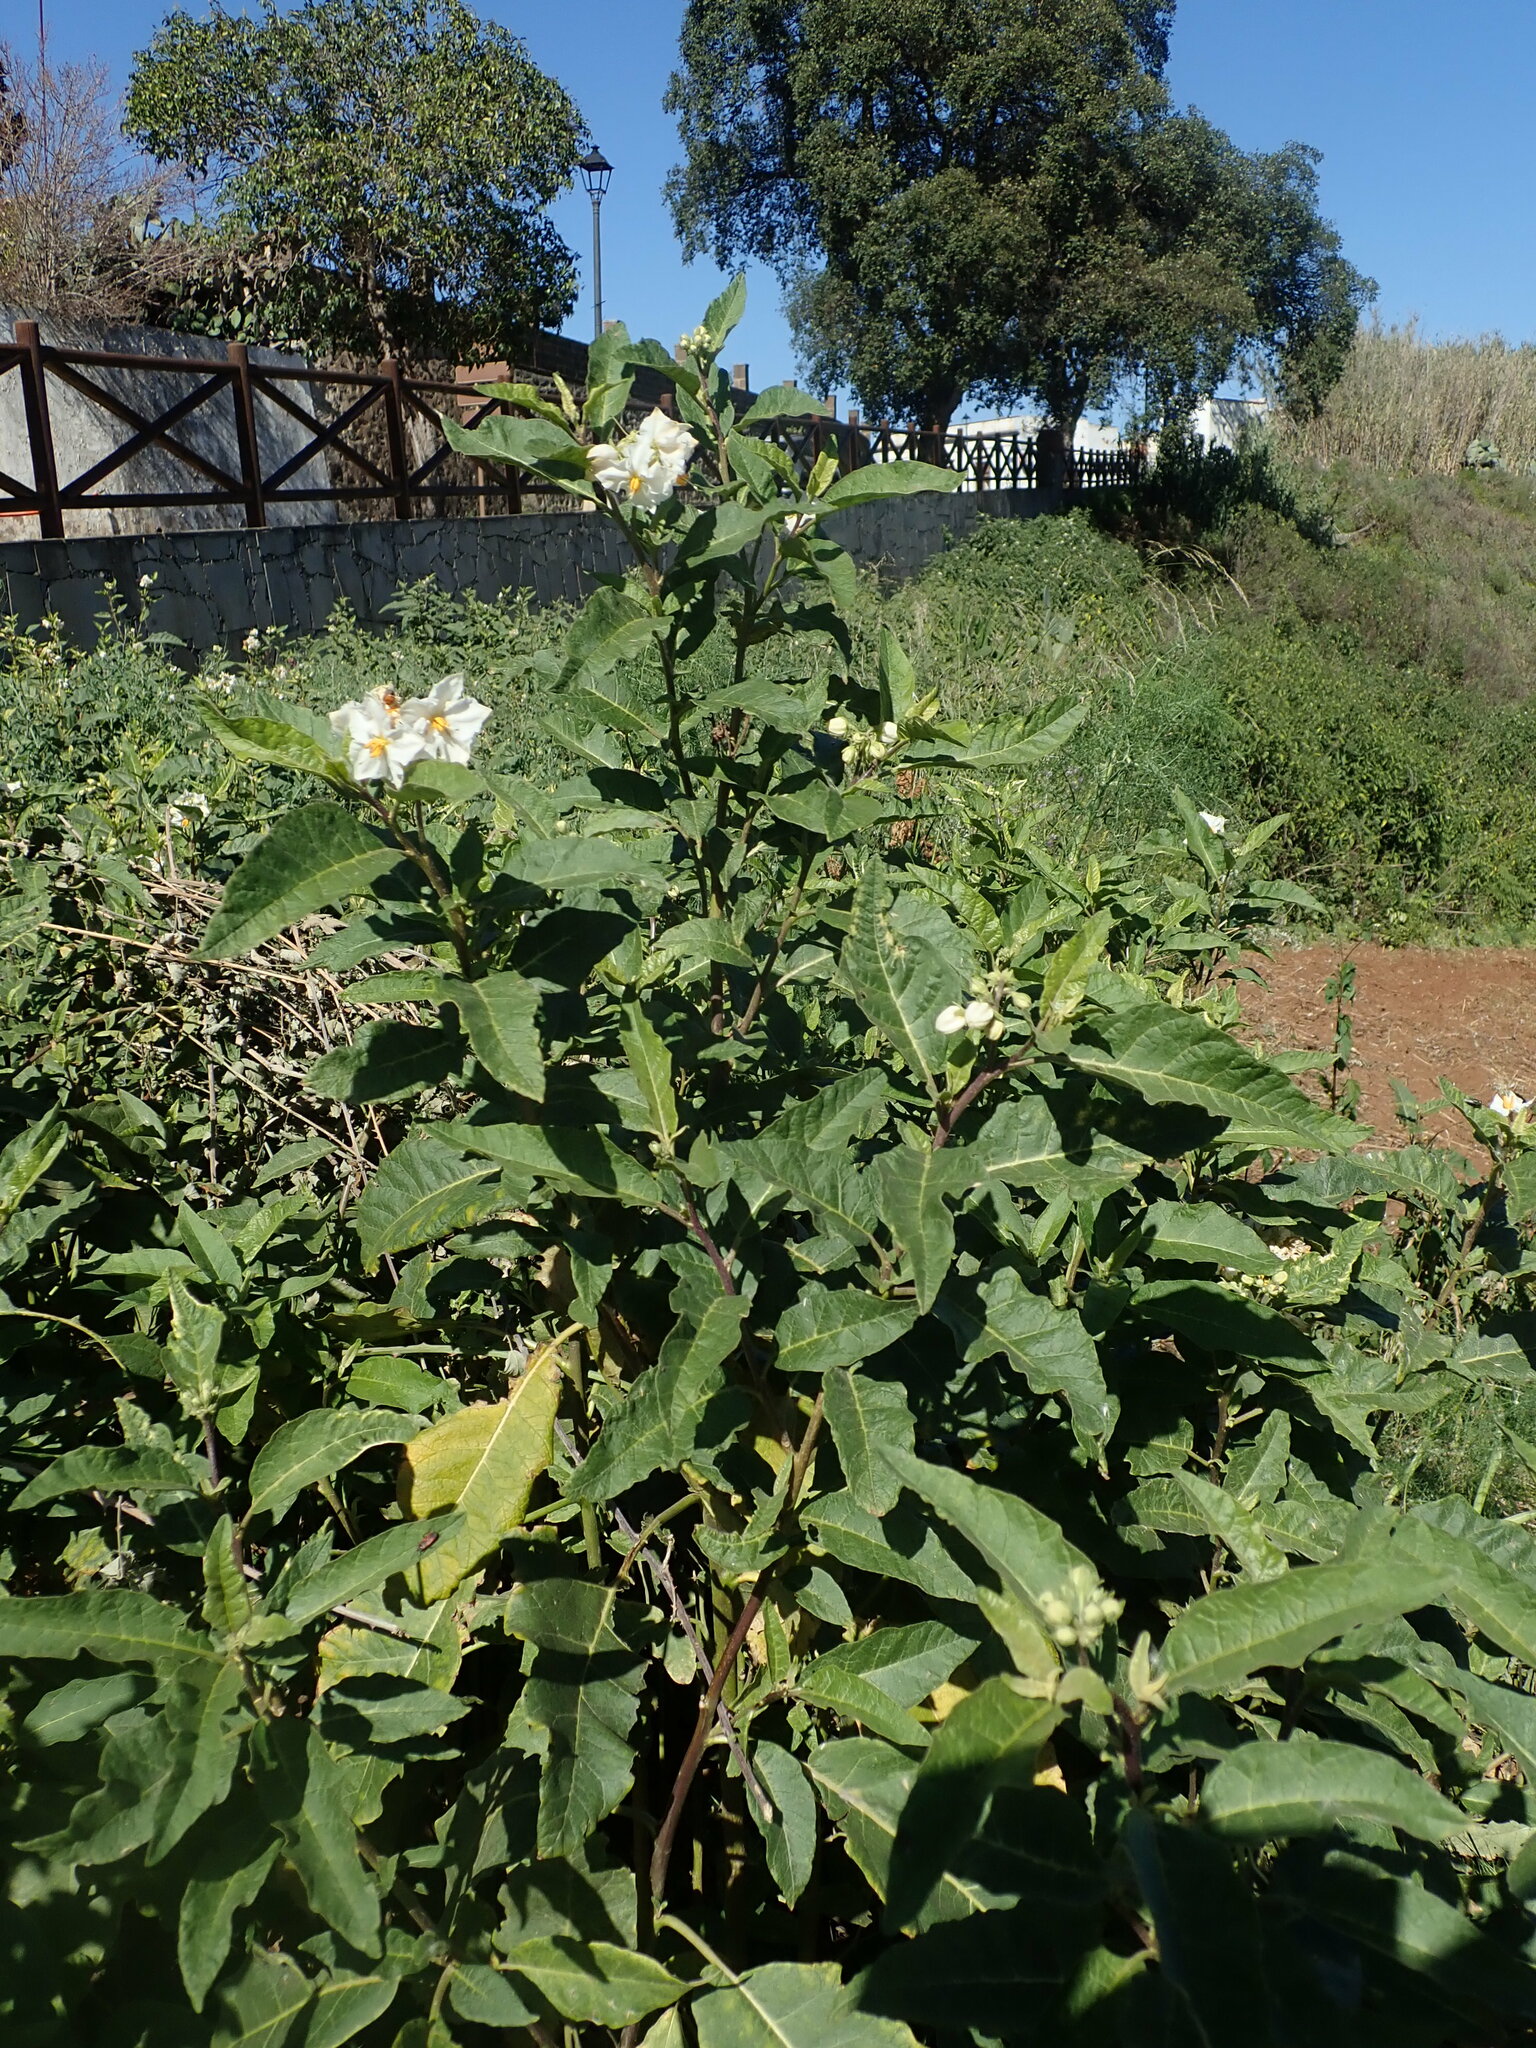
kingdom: Plantae
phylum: Tracheophyta
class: Magnoliopsida
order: Solanales
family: Solanaceae
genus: Solanum
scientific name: Solanum bonariense
